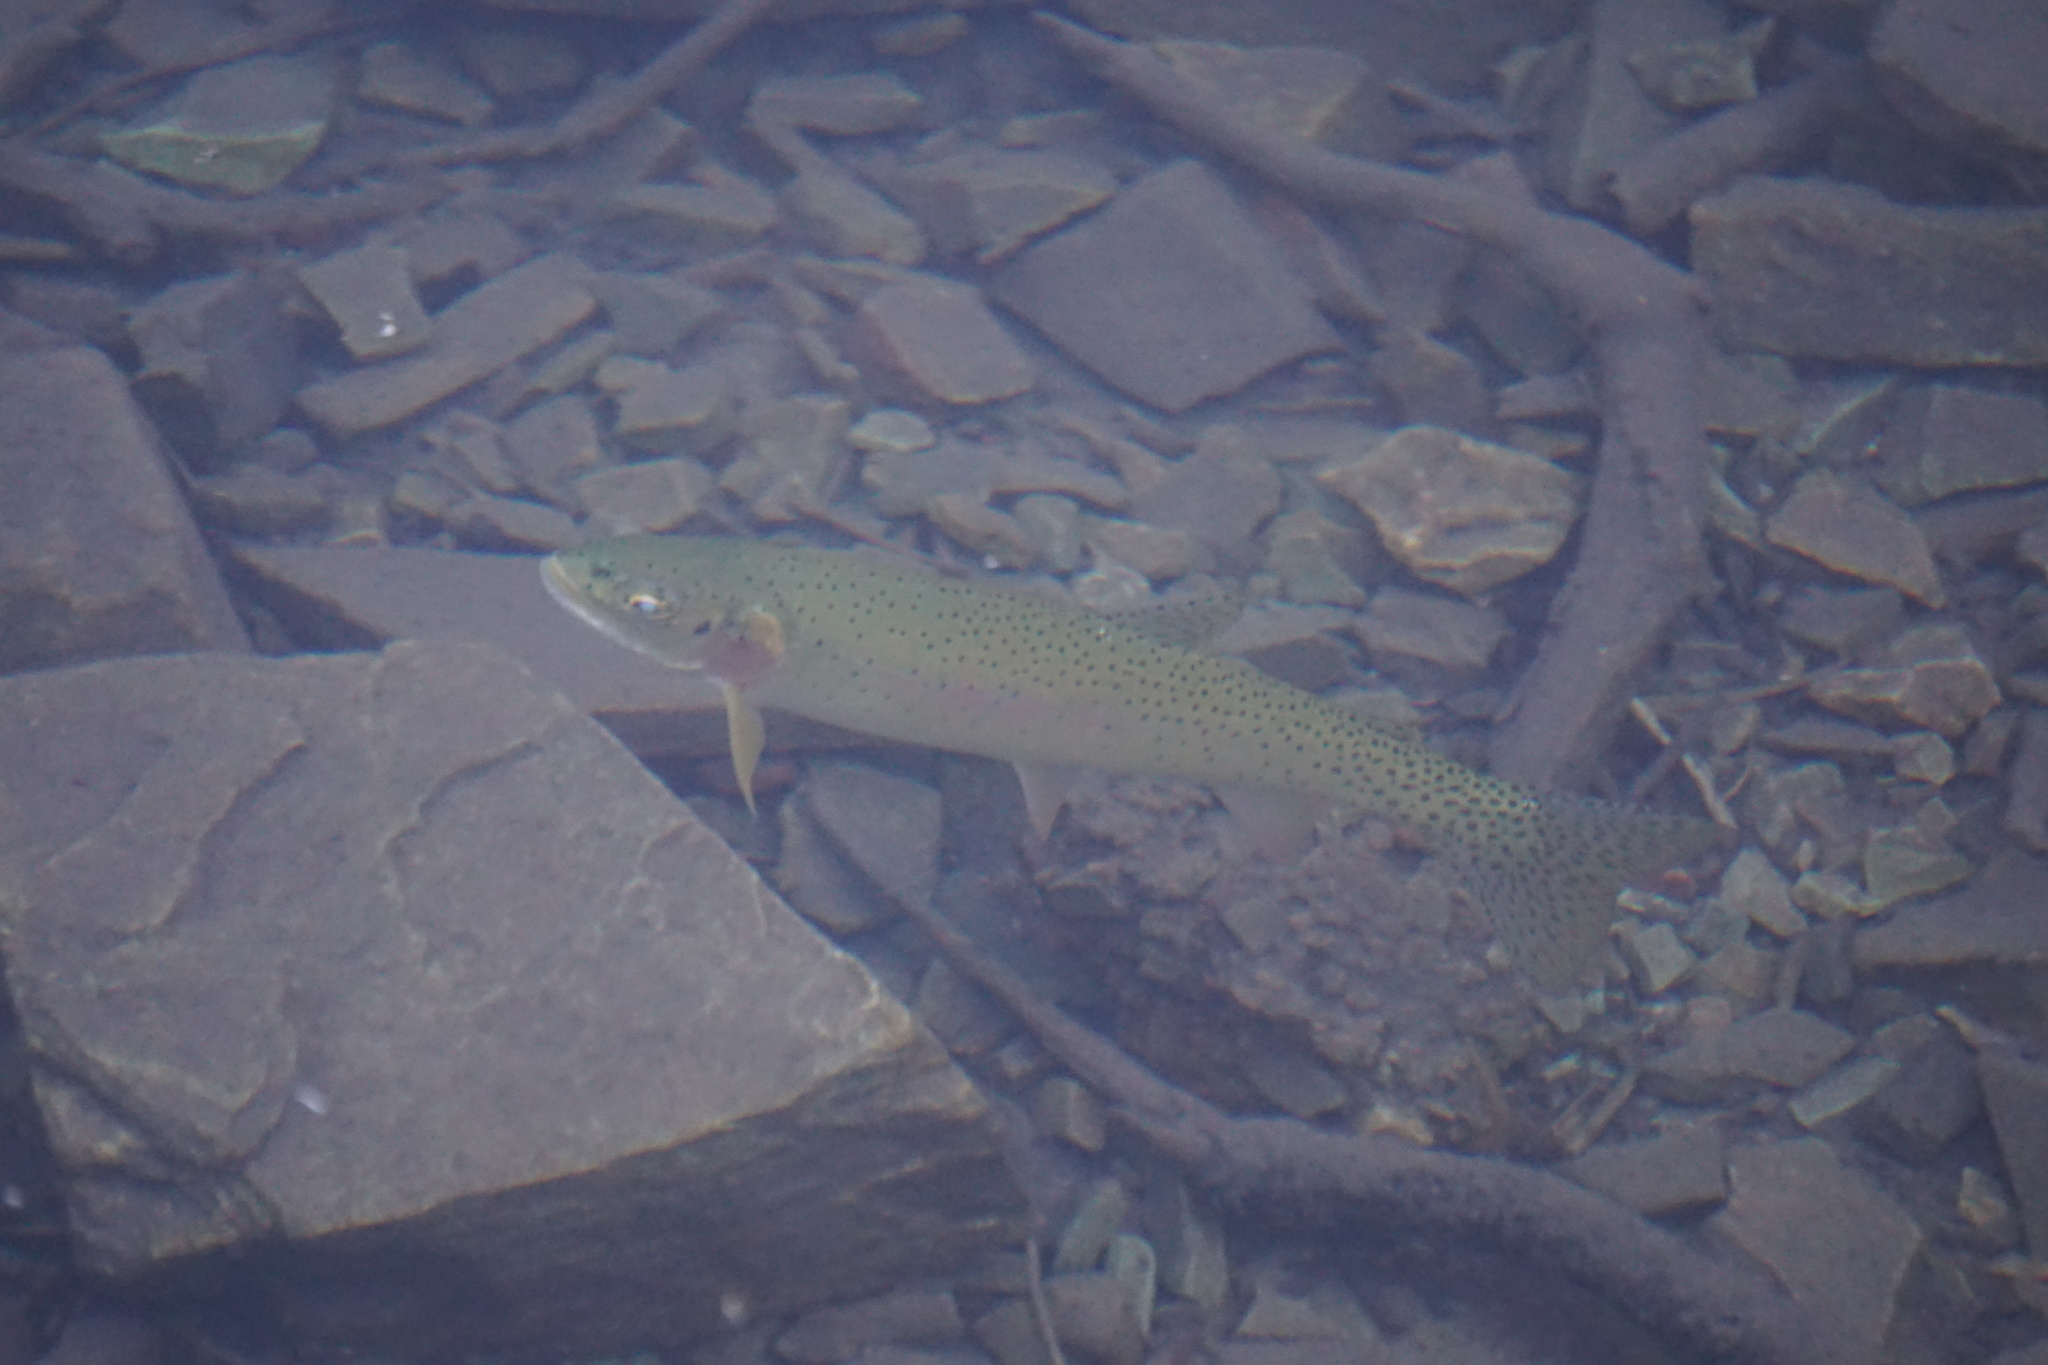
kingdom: Animalia
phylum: Chordata
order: Salmoniformes
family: Salmonidae
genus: Oncorhynchus
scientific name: Oncorhynchus
